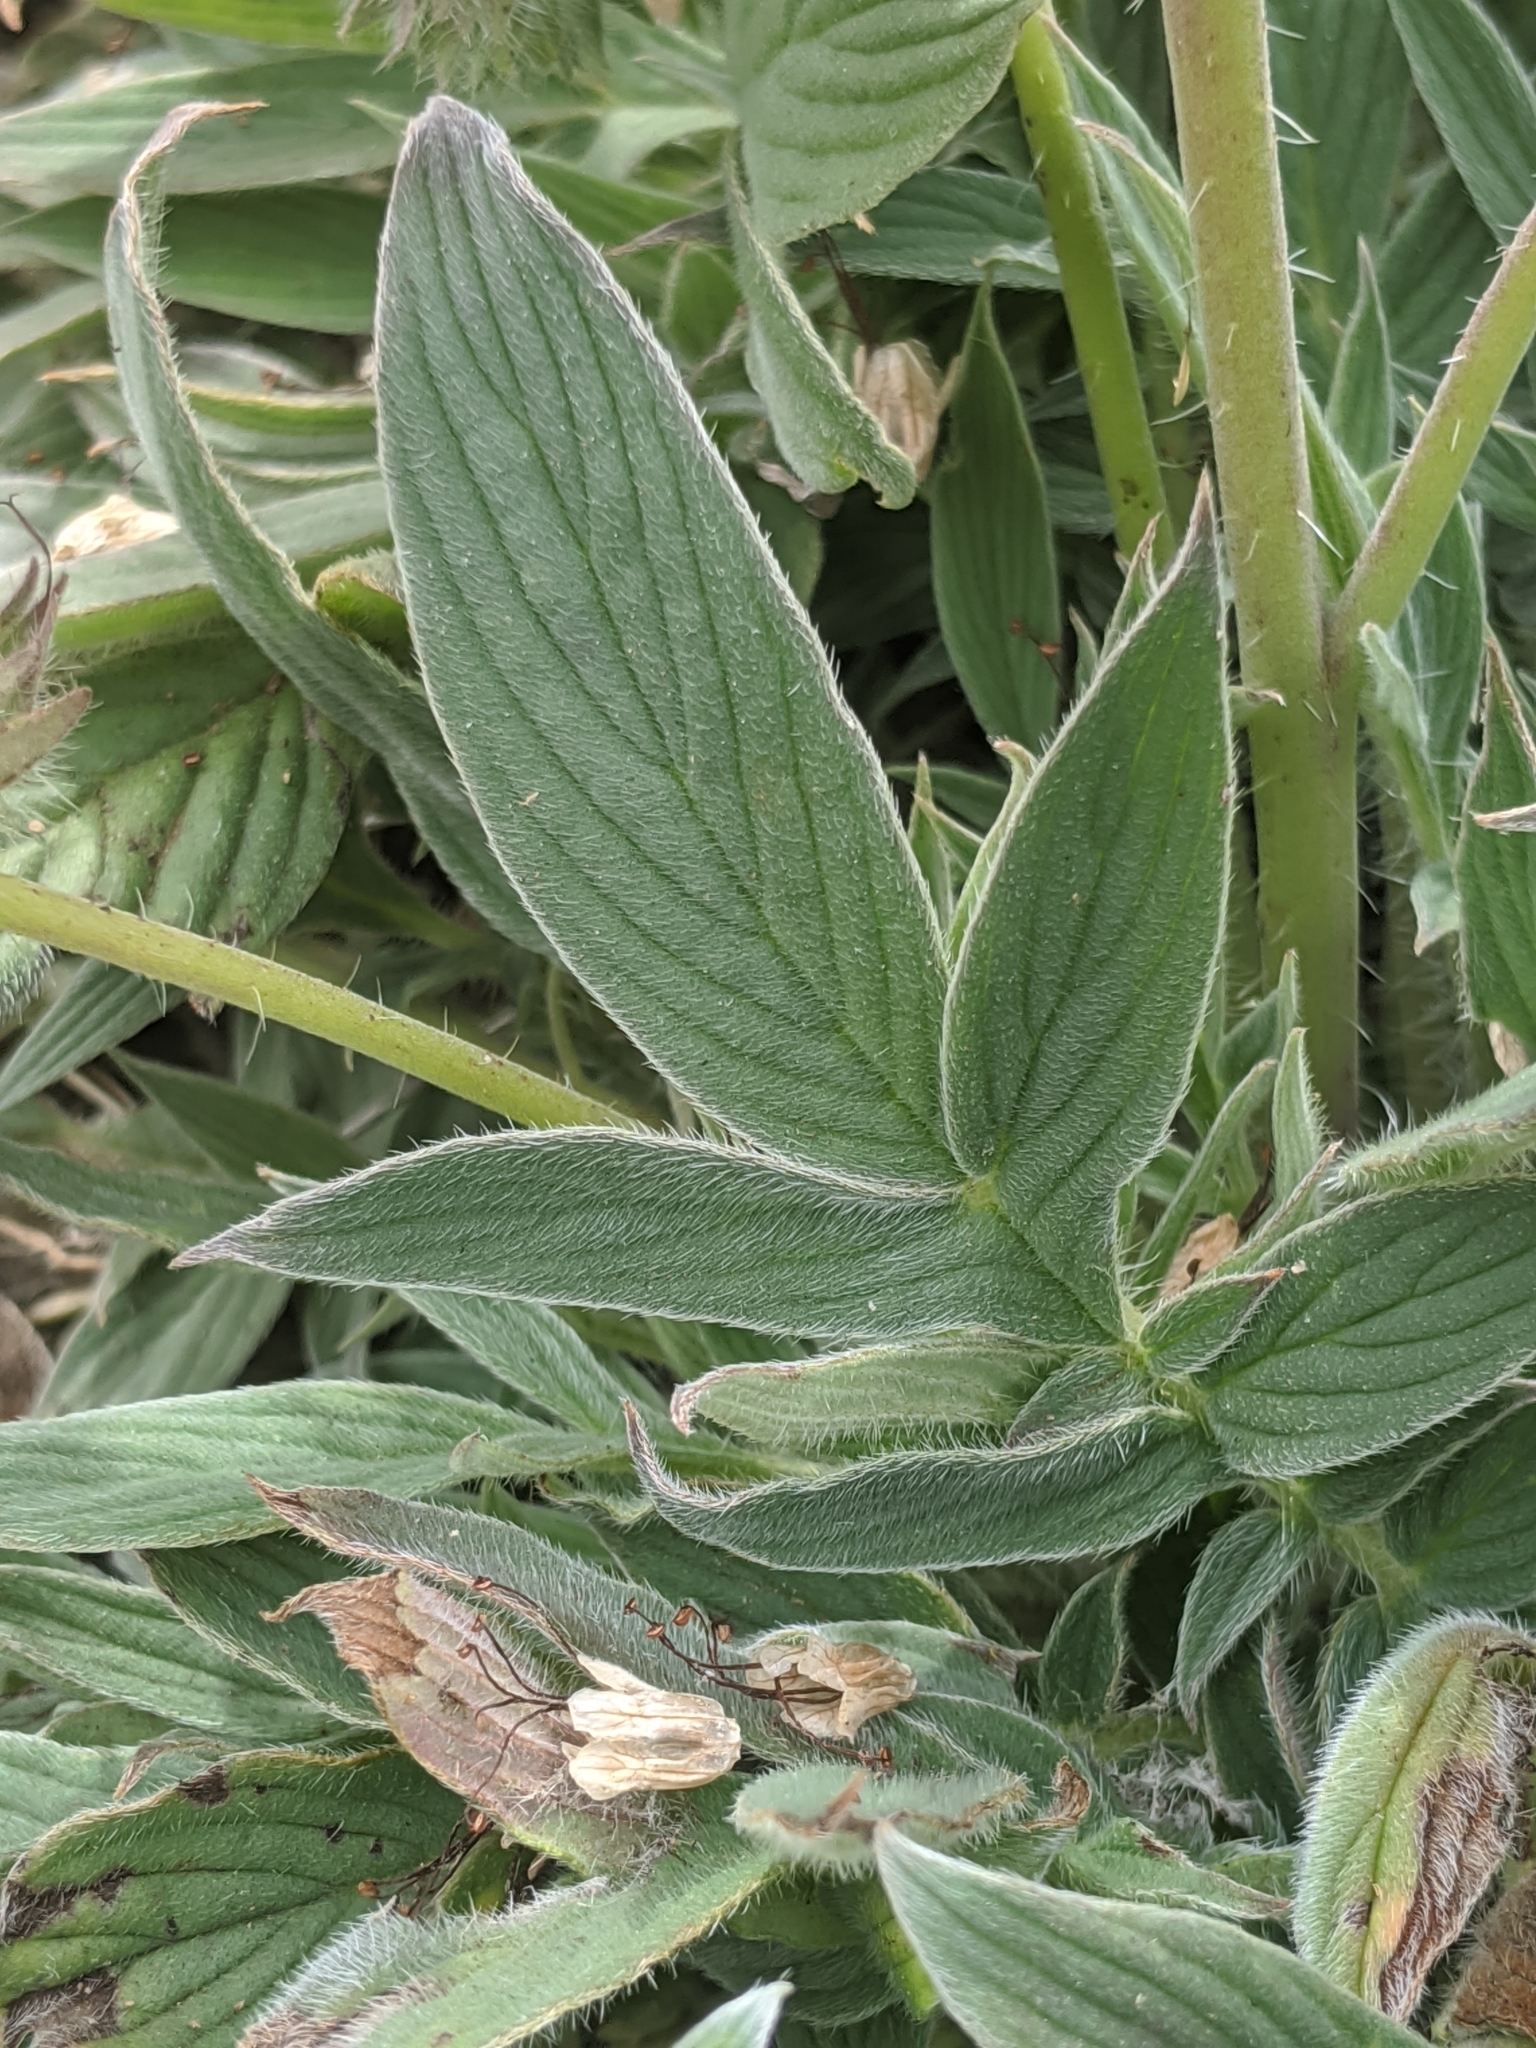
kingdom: Plantae
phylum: Tracheophyta
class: Magnoliopsida
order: Boraginales
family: Hydrophyllaceae
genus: Phacelia
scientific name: Phacelia imbricata
